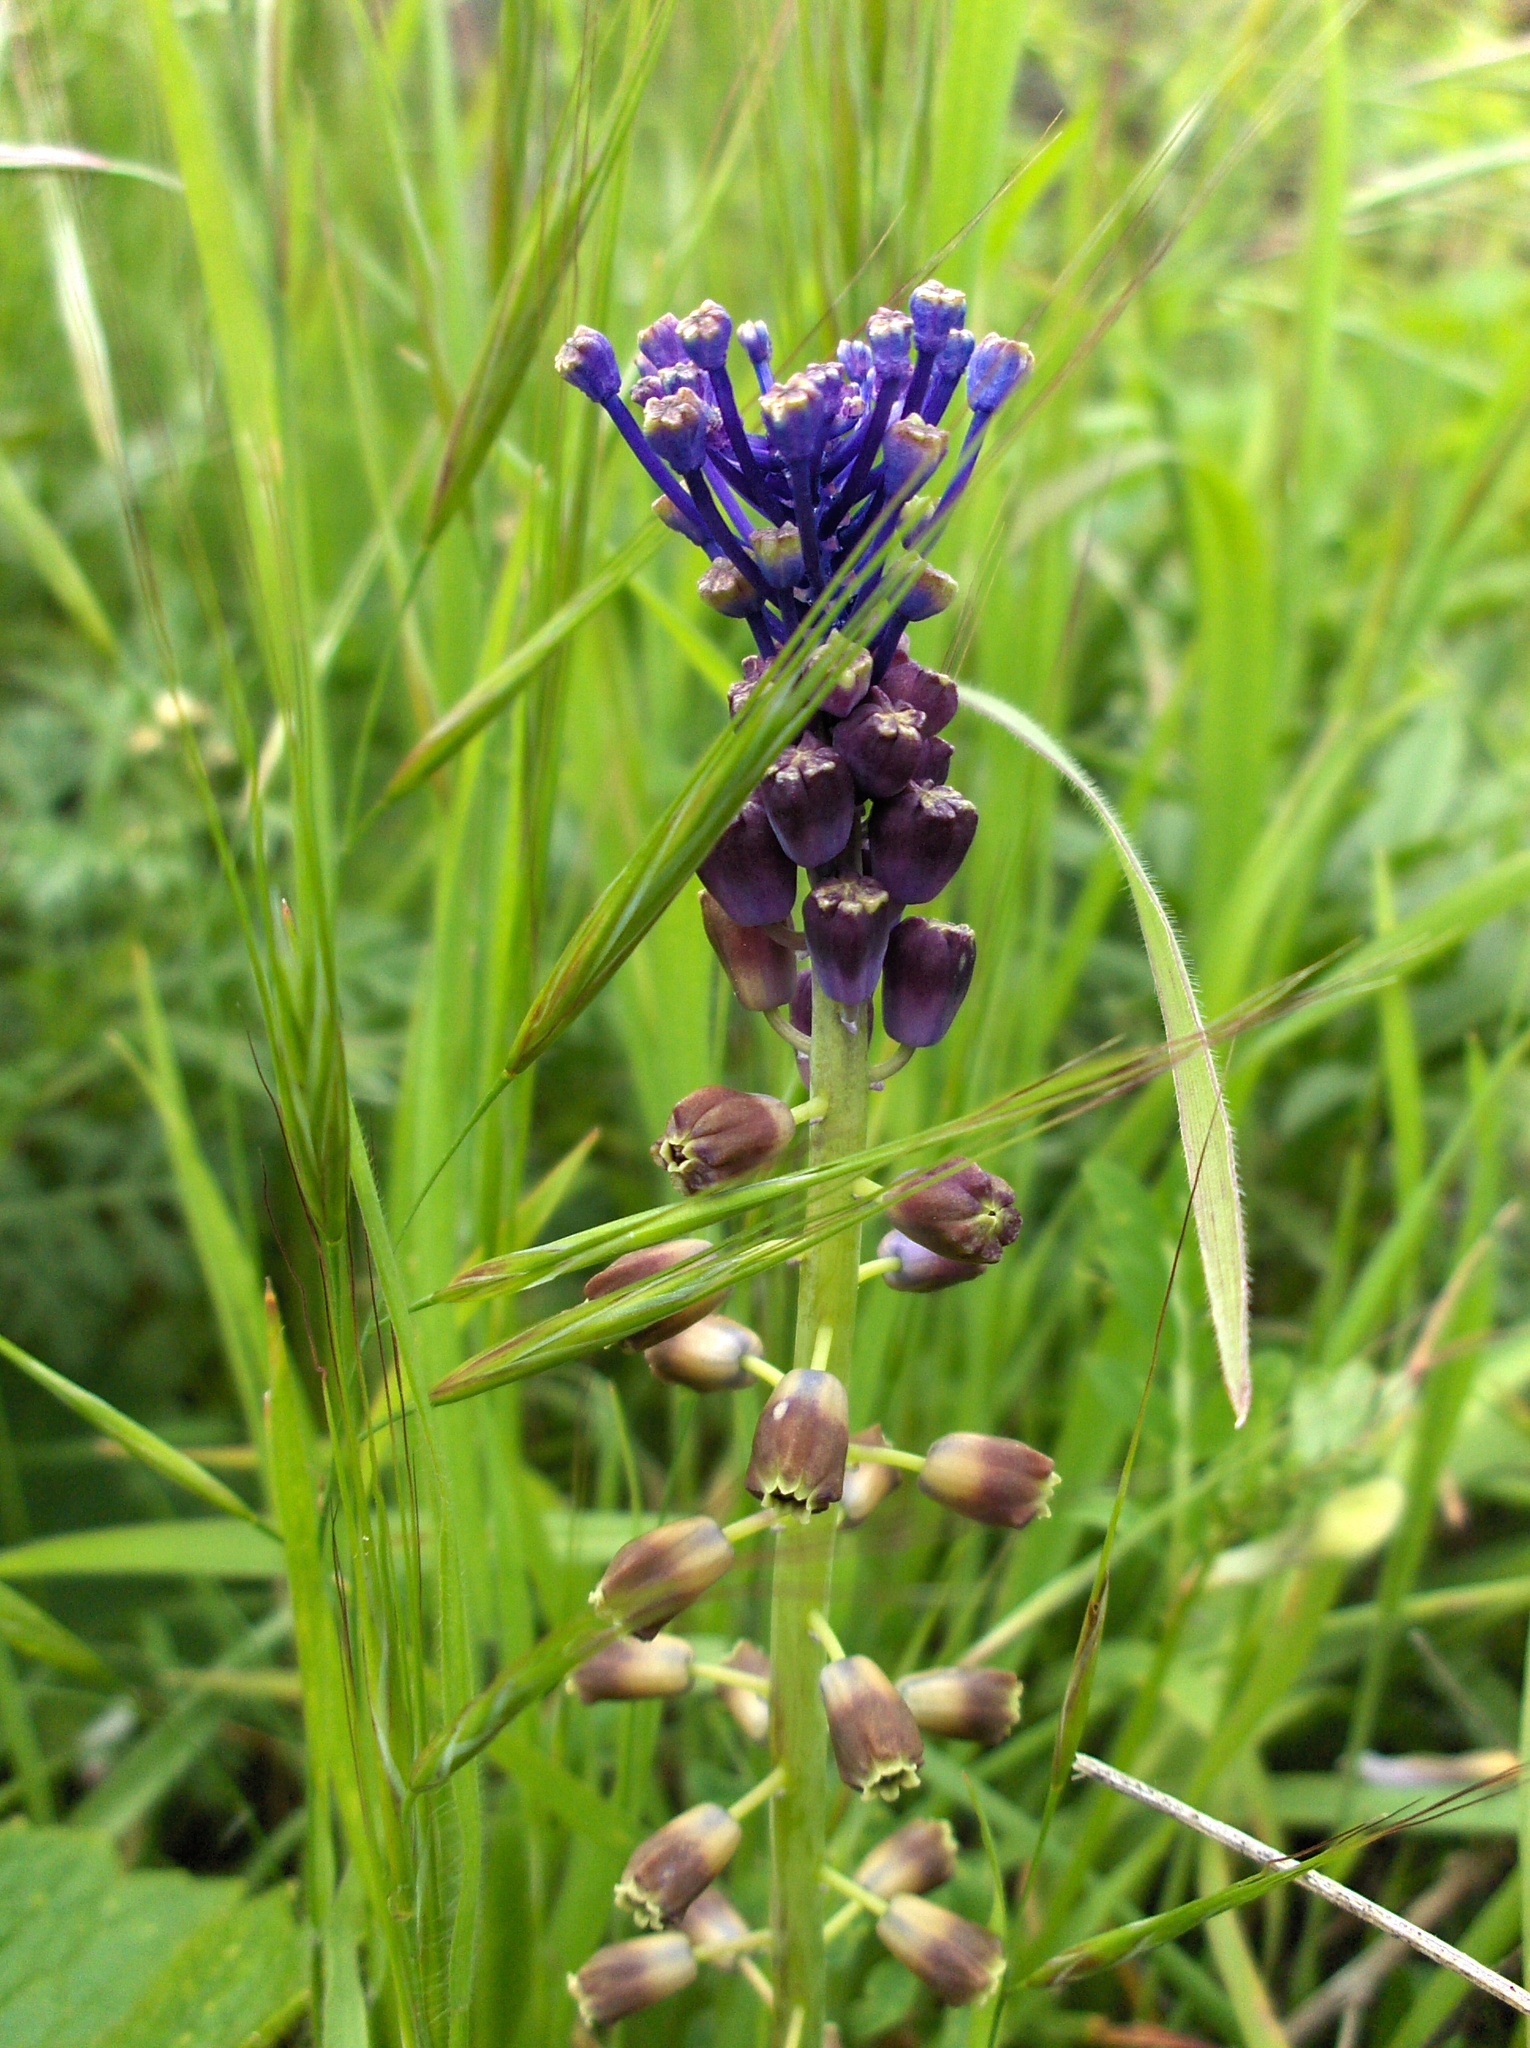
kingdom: Plantae
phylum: Tracheophyta
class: Liliopsida
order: Asparagales
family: Asparagaceae
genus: Muscari
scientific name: Muscari comosum
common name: Tassel hyacinth
